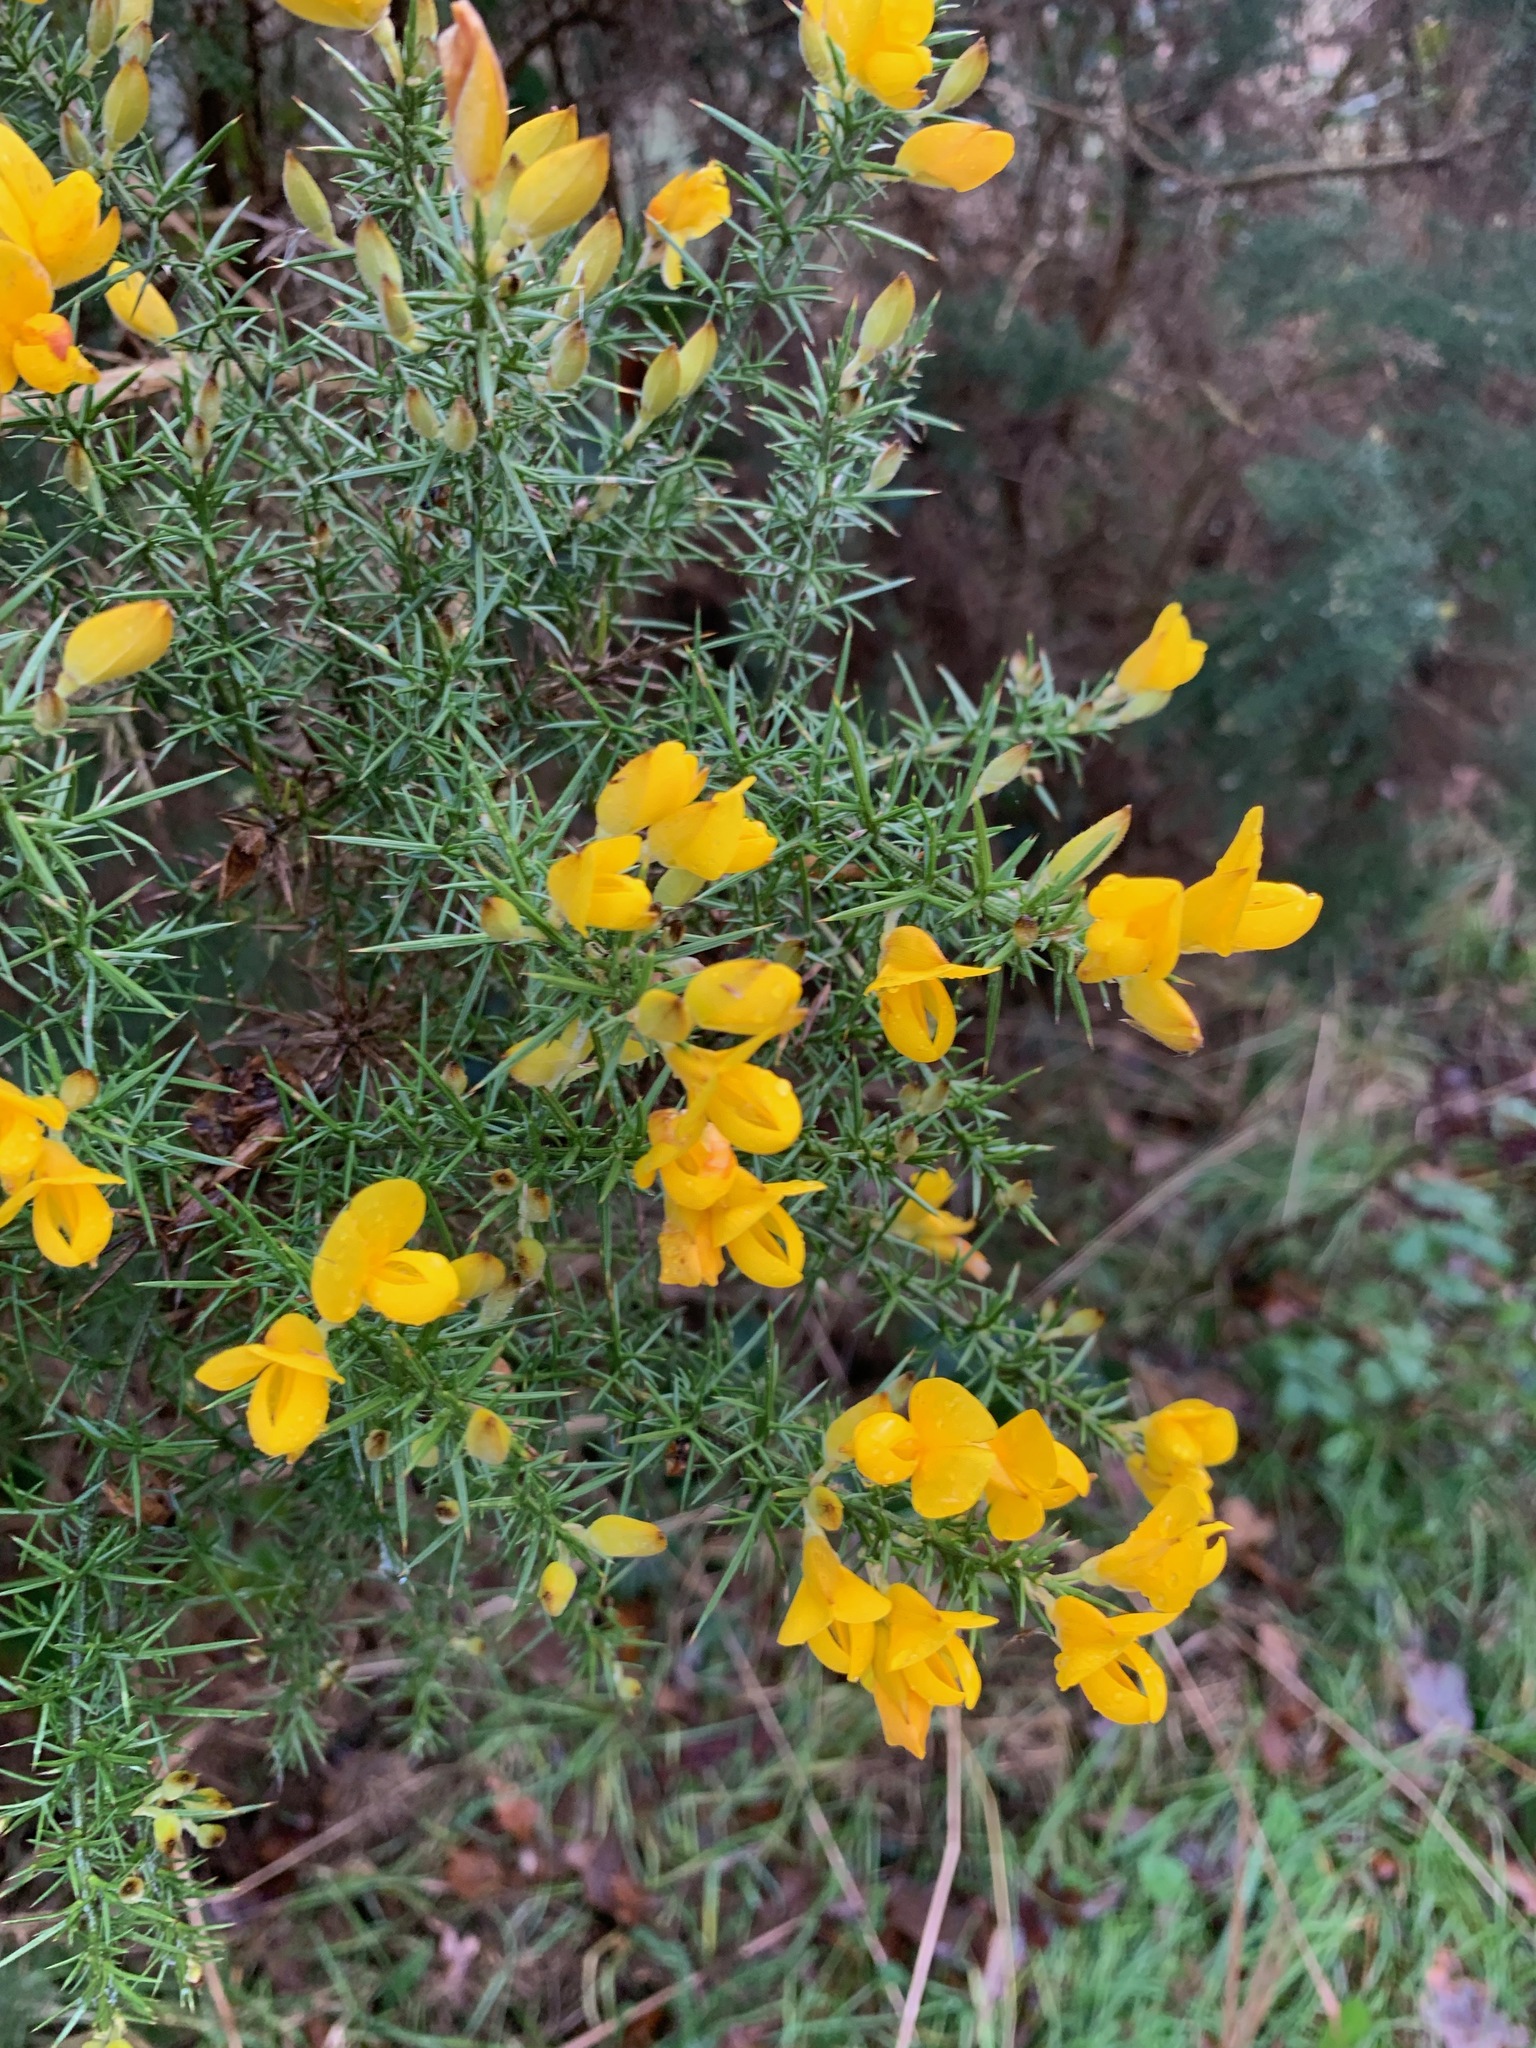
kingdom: Plantae
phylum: Tracheophyta
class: Magnoliopsida
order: Fabales
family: Fabaceae
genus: Ulex
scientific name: Ulex europaeus
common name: Common gorse
